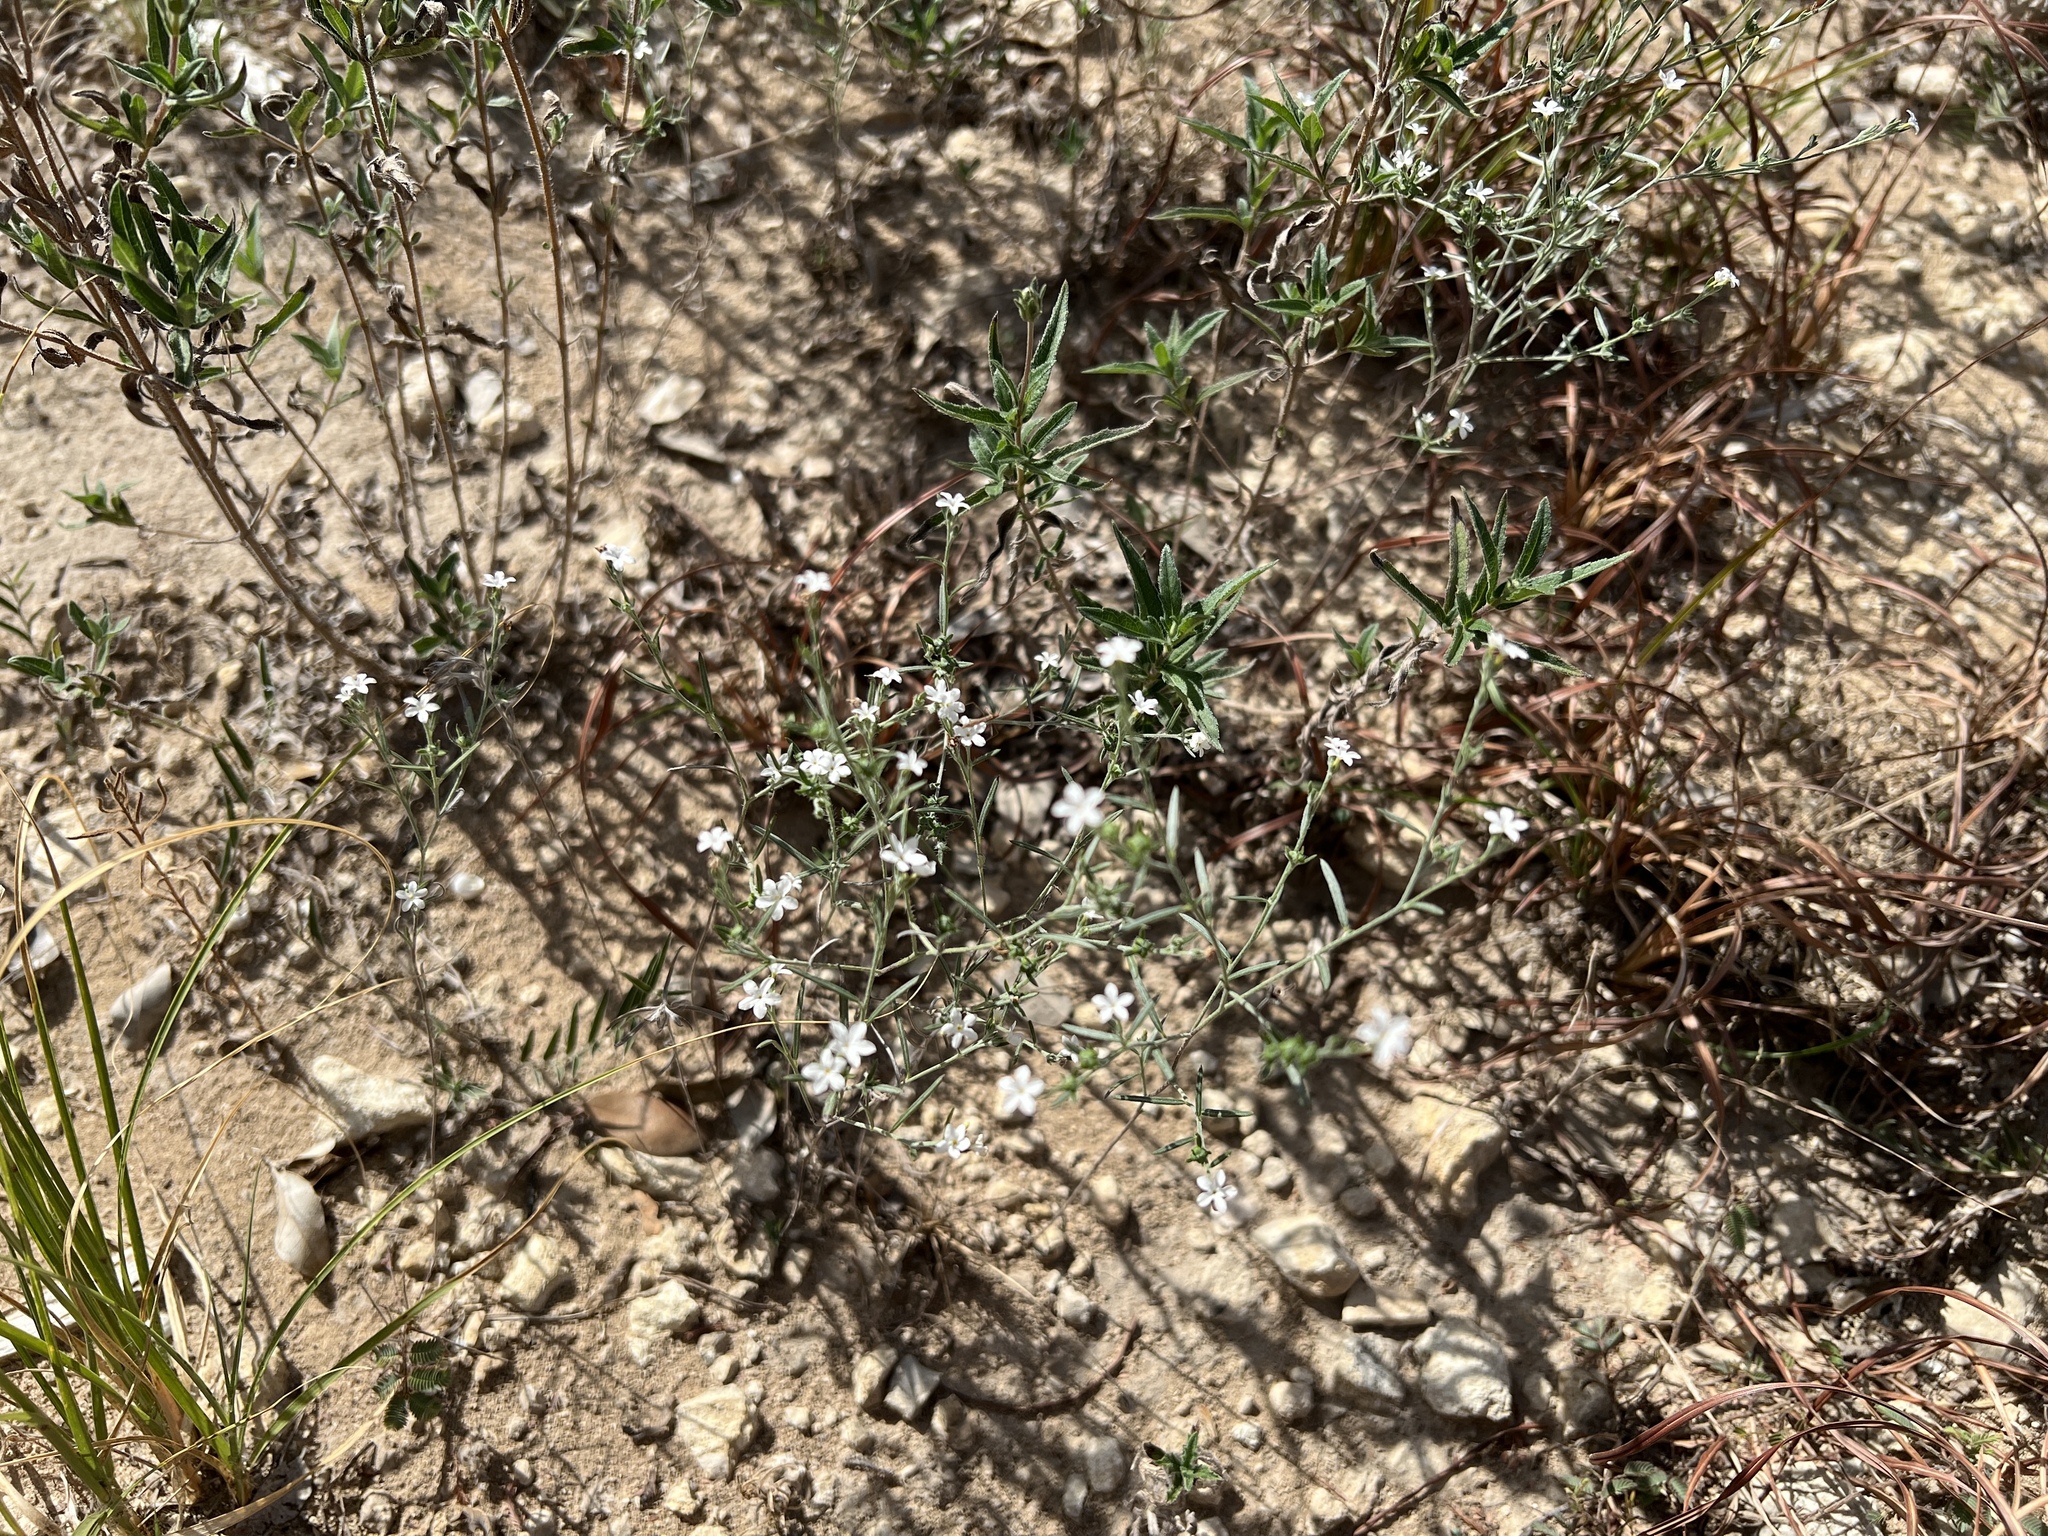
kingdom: Plantae
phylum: Tracheophyta
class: Magnoliopsida
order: Boraginales
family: Heliotropiaceae
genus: Euploca
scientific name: Euploca tenella
